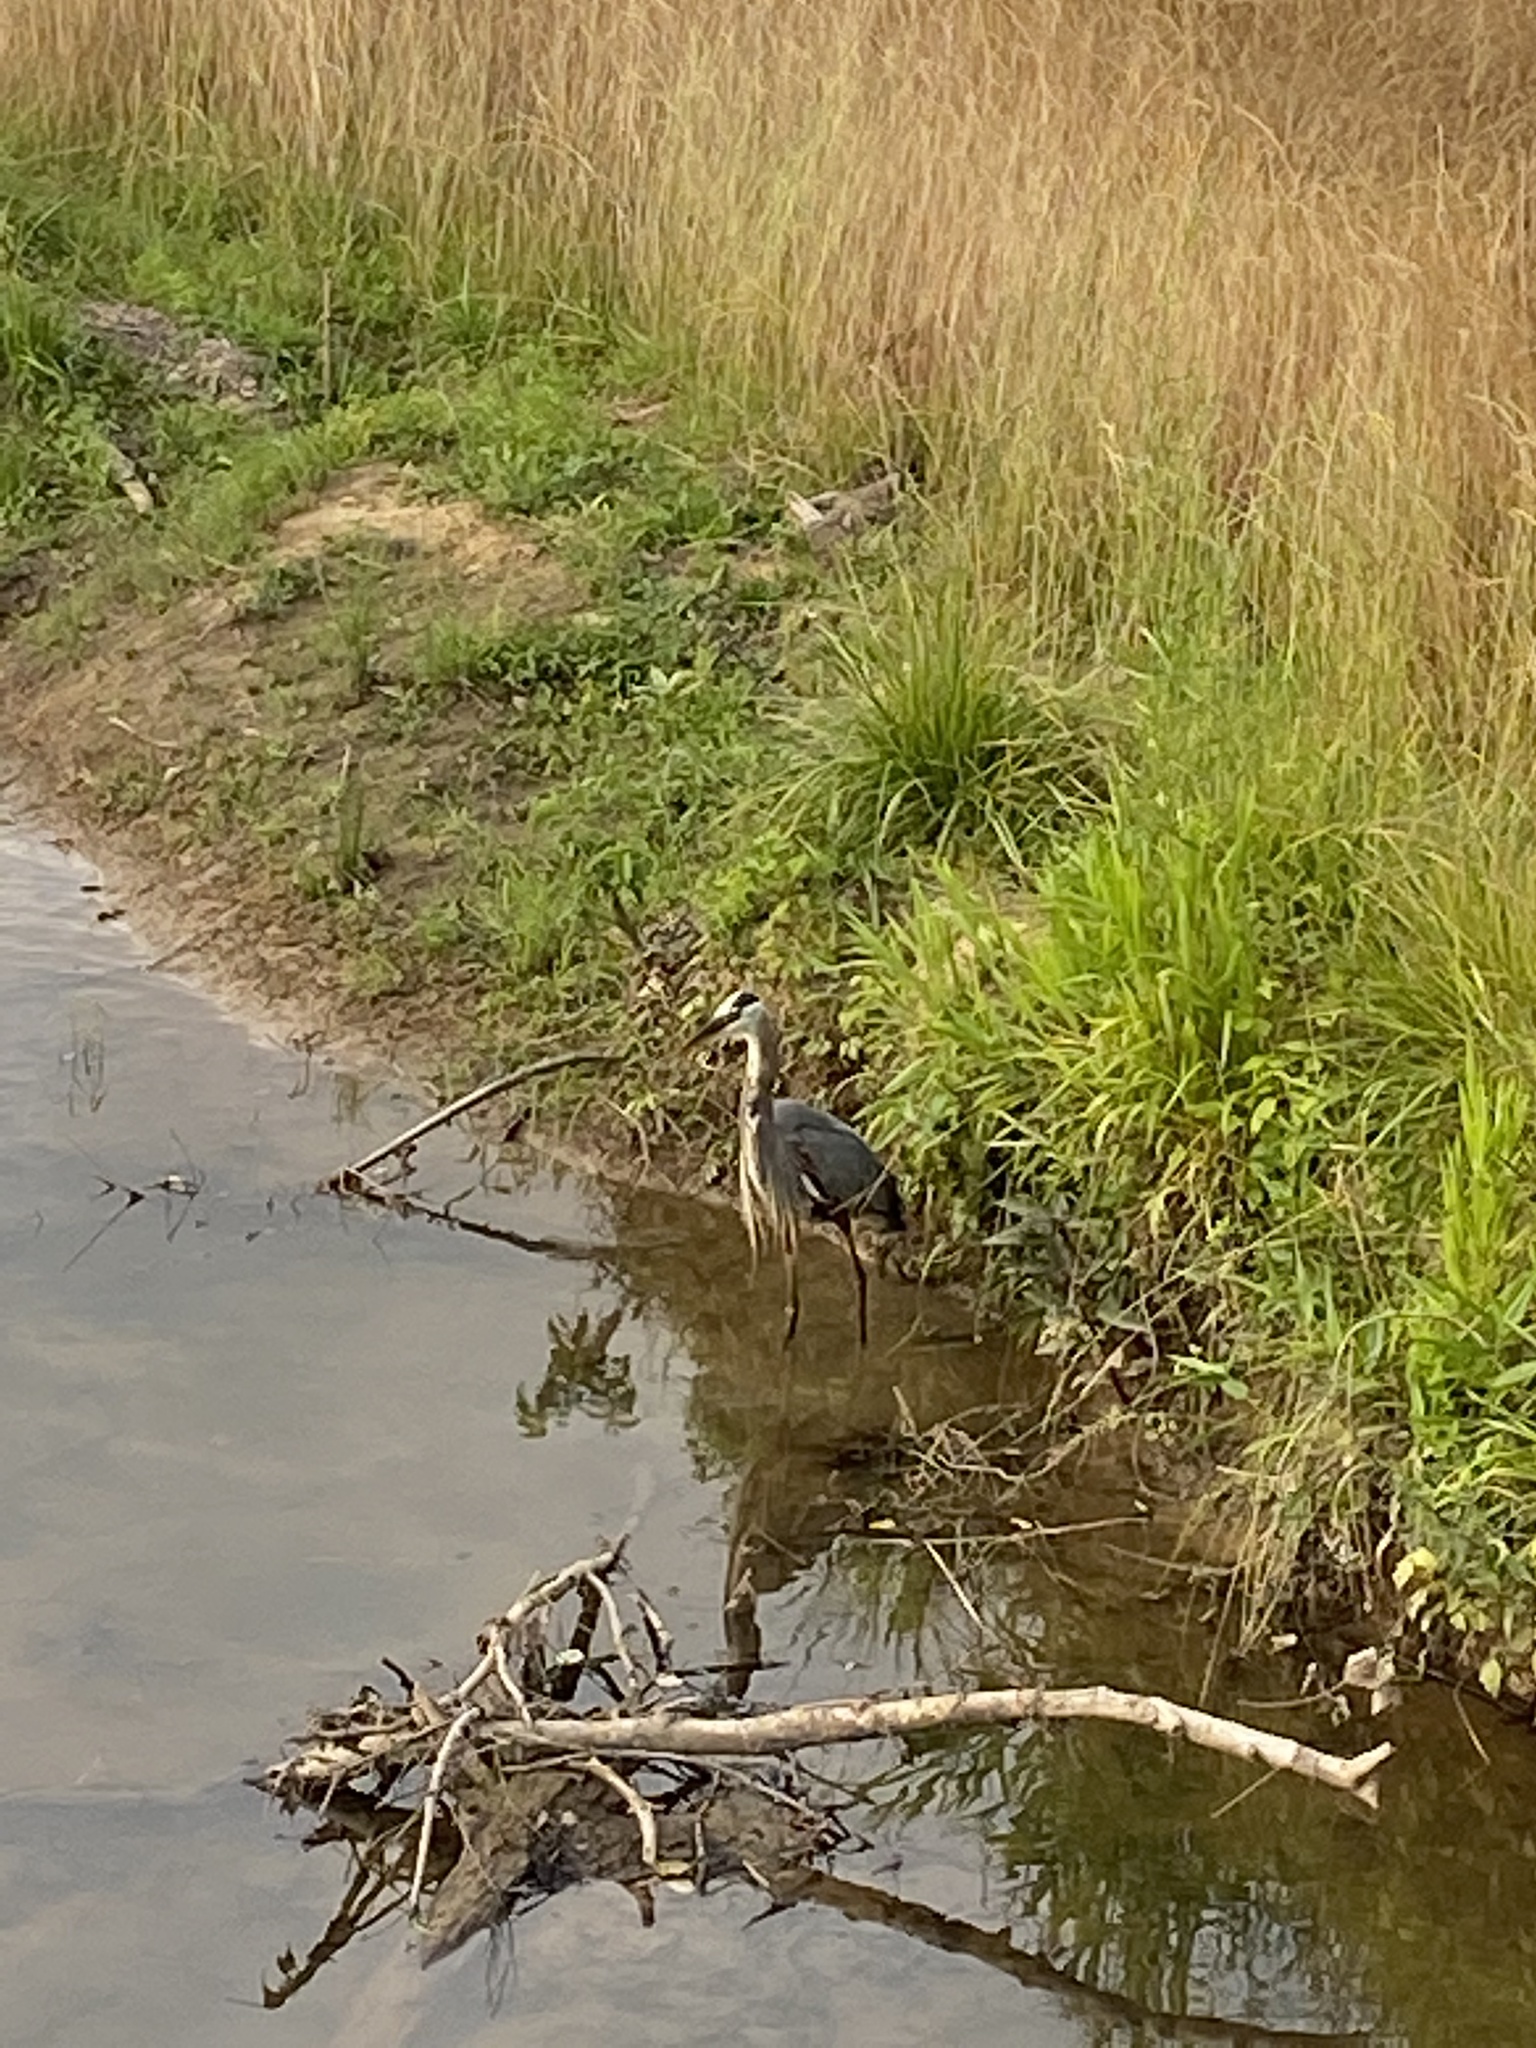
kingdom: Animalia
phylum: Chordata
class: Aves
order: Pelecaniformes
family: Ardeidae
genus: Ardea
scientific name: Ardea herodias
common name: Great blue heron
